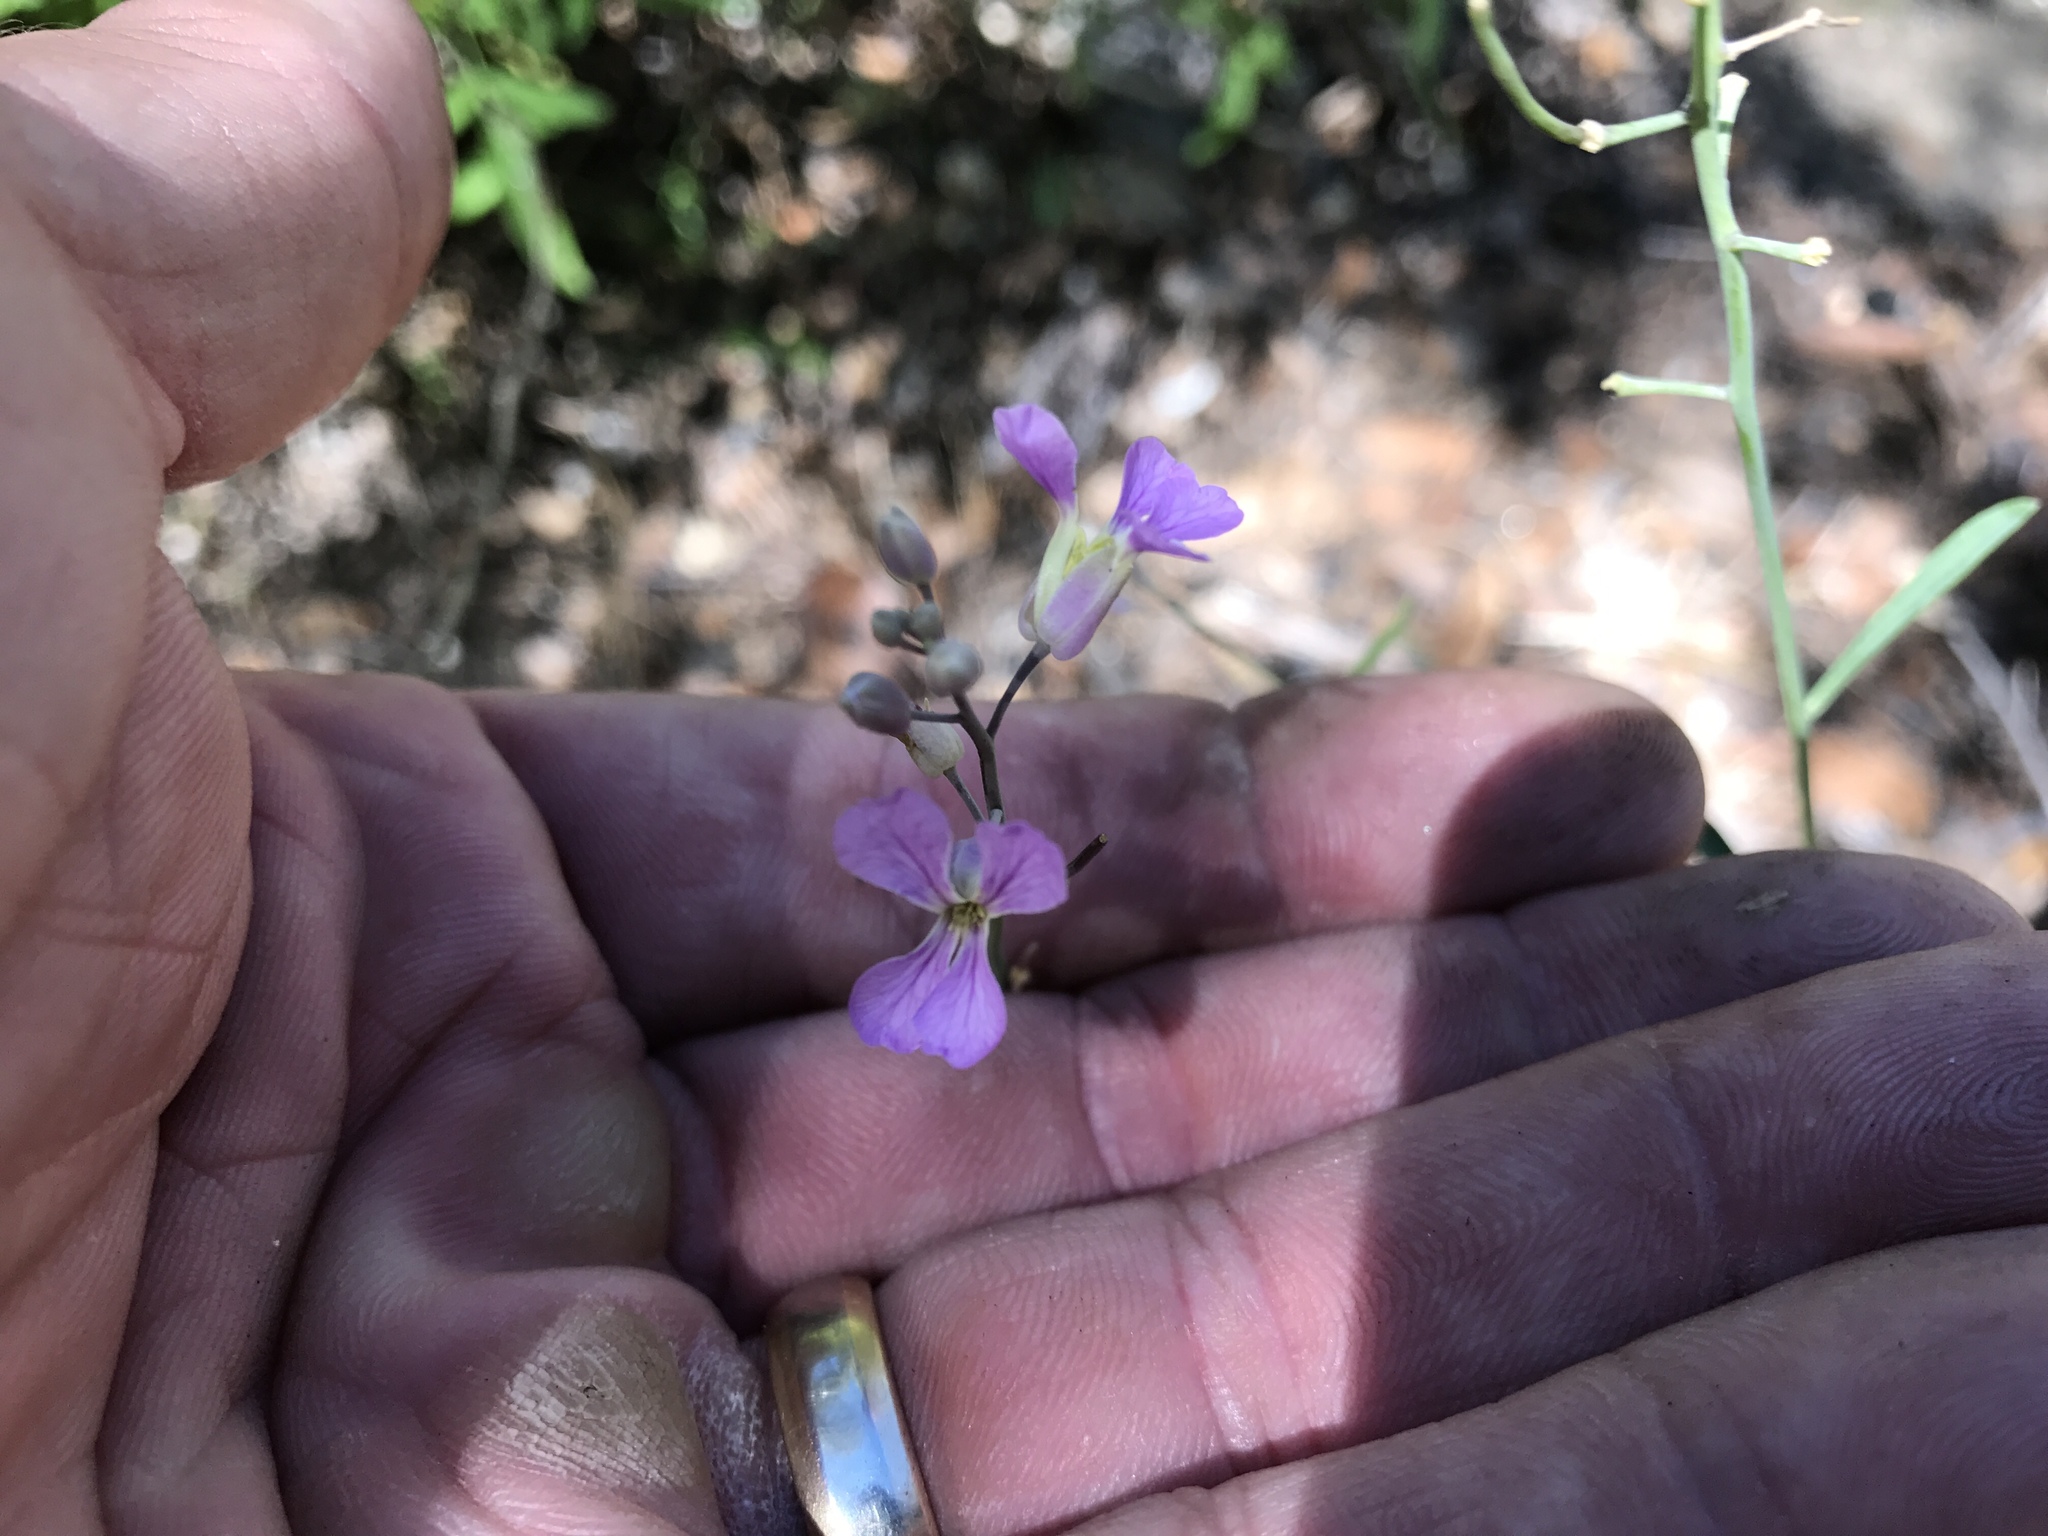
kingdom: Plantae
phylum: Tracheophyta
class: Magnoliopsida
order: Brassicales
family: Brassicaceae
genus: Hesperidanthus
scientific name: Hesperidanthus linearifolius
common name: Slim-leaf plains mustard
